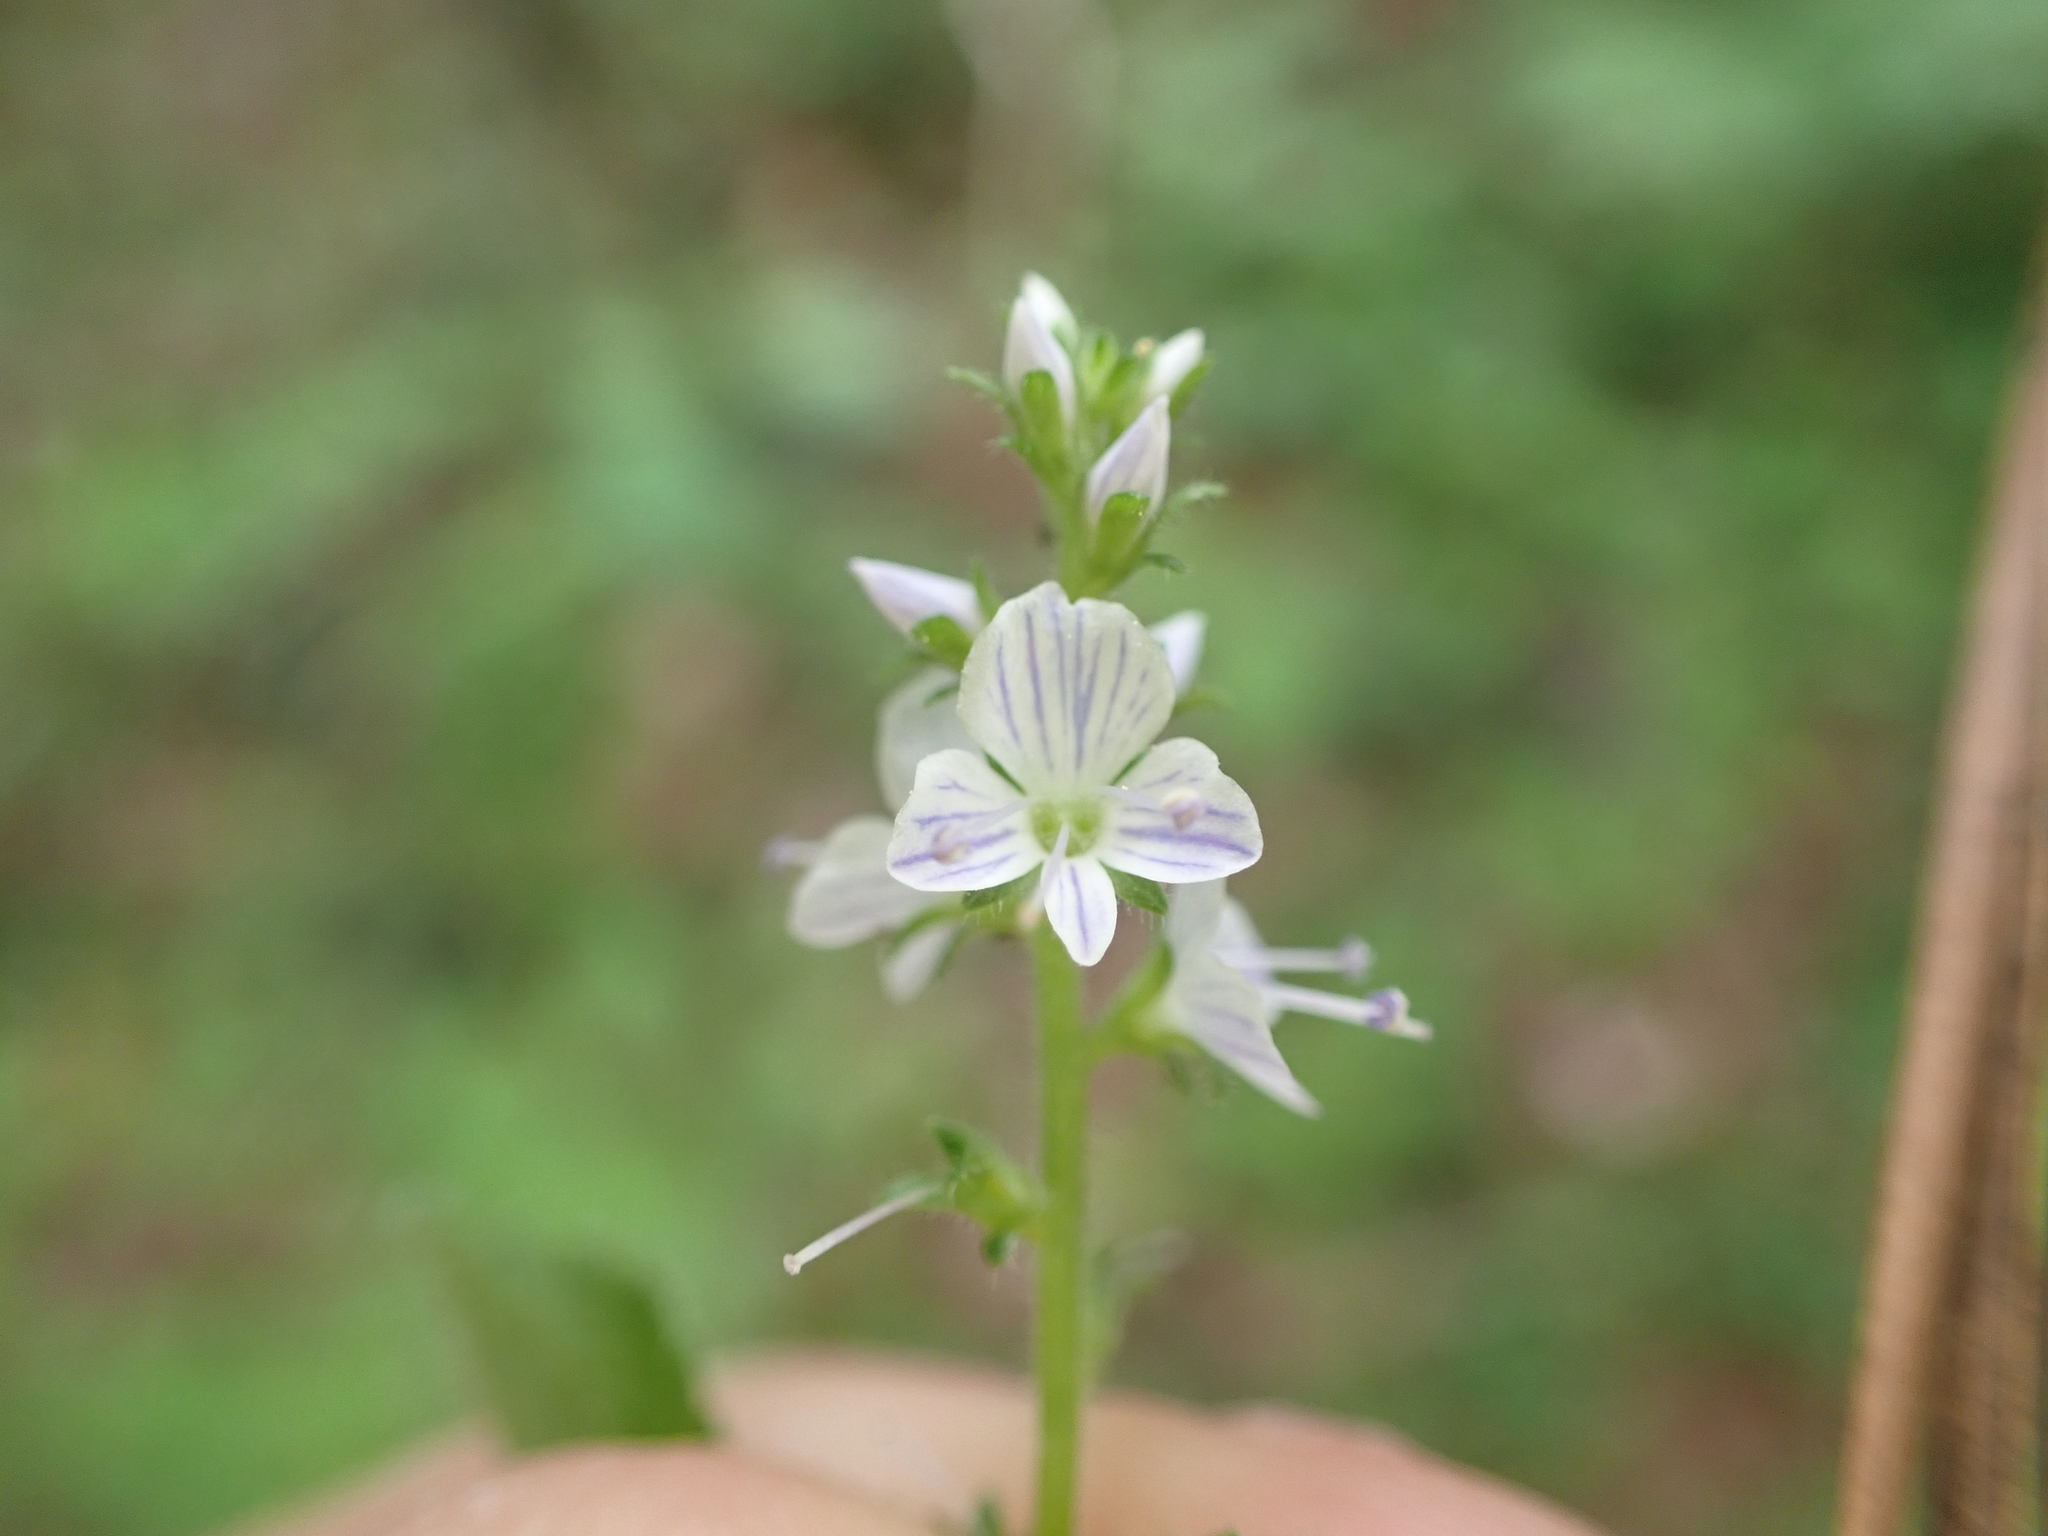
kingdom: Plantae
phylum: Tracheophyta
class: Magnoliopsida
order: Lamiales
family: Plantaginaceae
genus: Veronica
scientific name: Veronica officinalis
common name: Common speedwell
